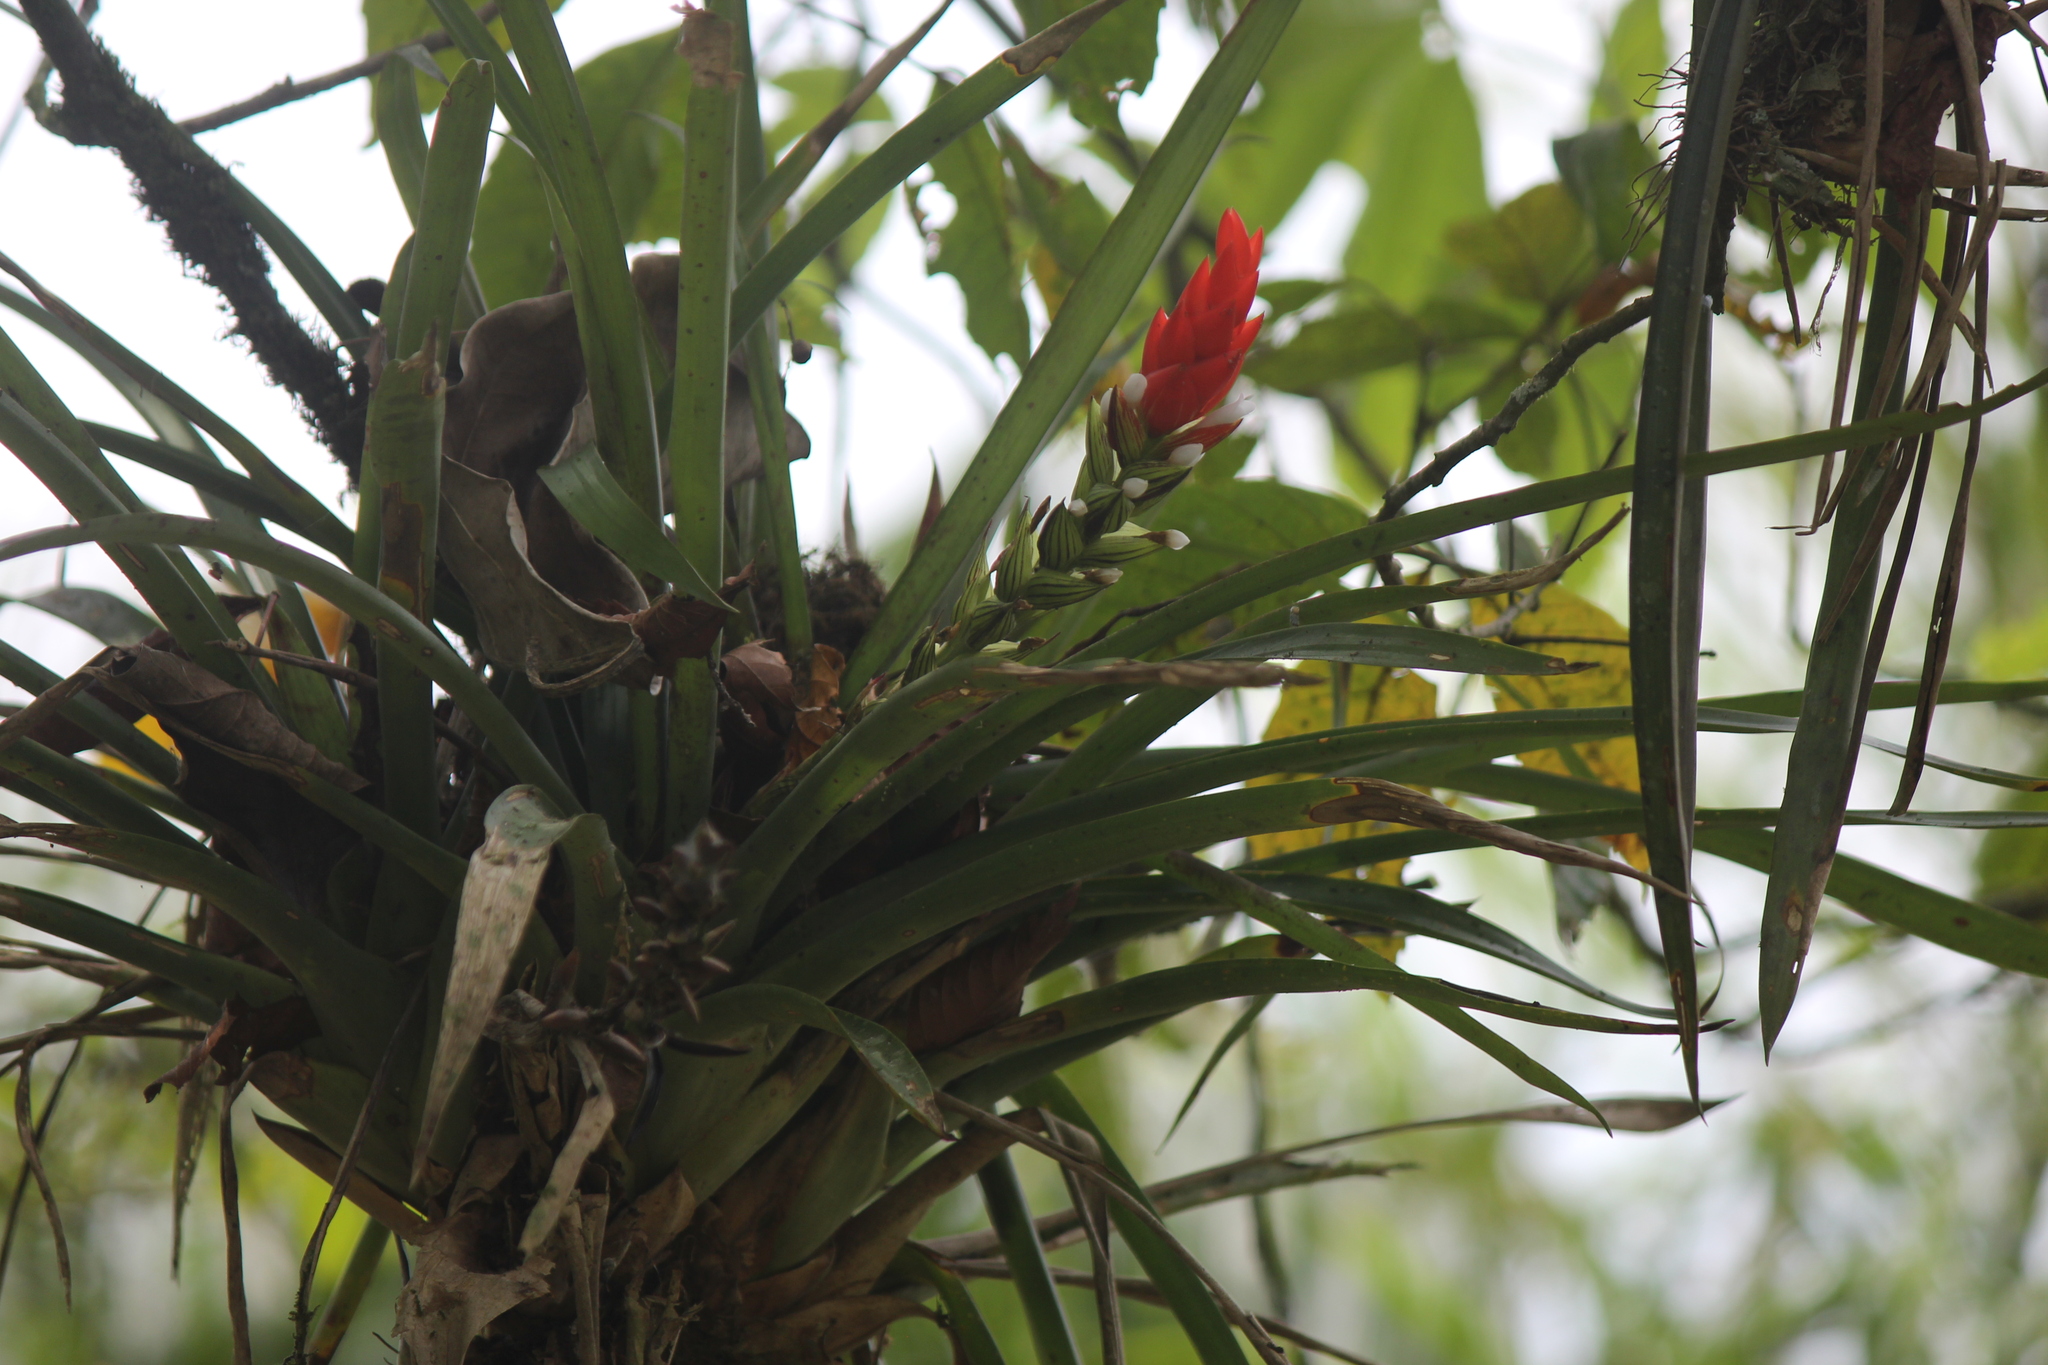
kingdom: Plantae
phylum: Tracheophyta
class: Liliopsida
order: Poales
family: Bromeliaceae
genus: Guzmania
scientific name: Guzmania monostachia
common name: West indian tufted airplant
